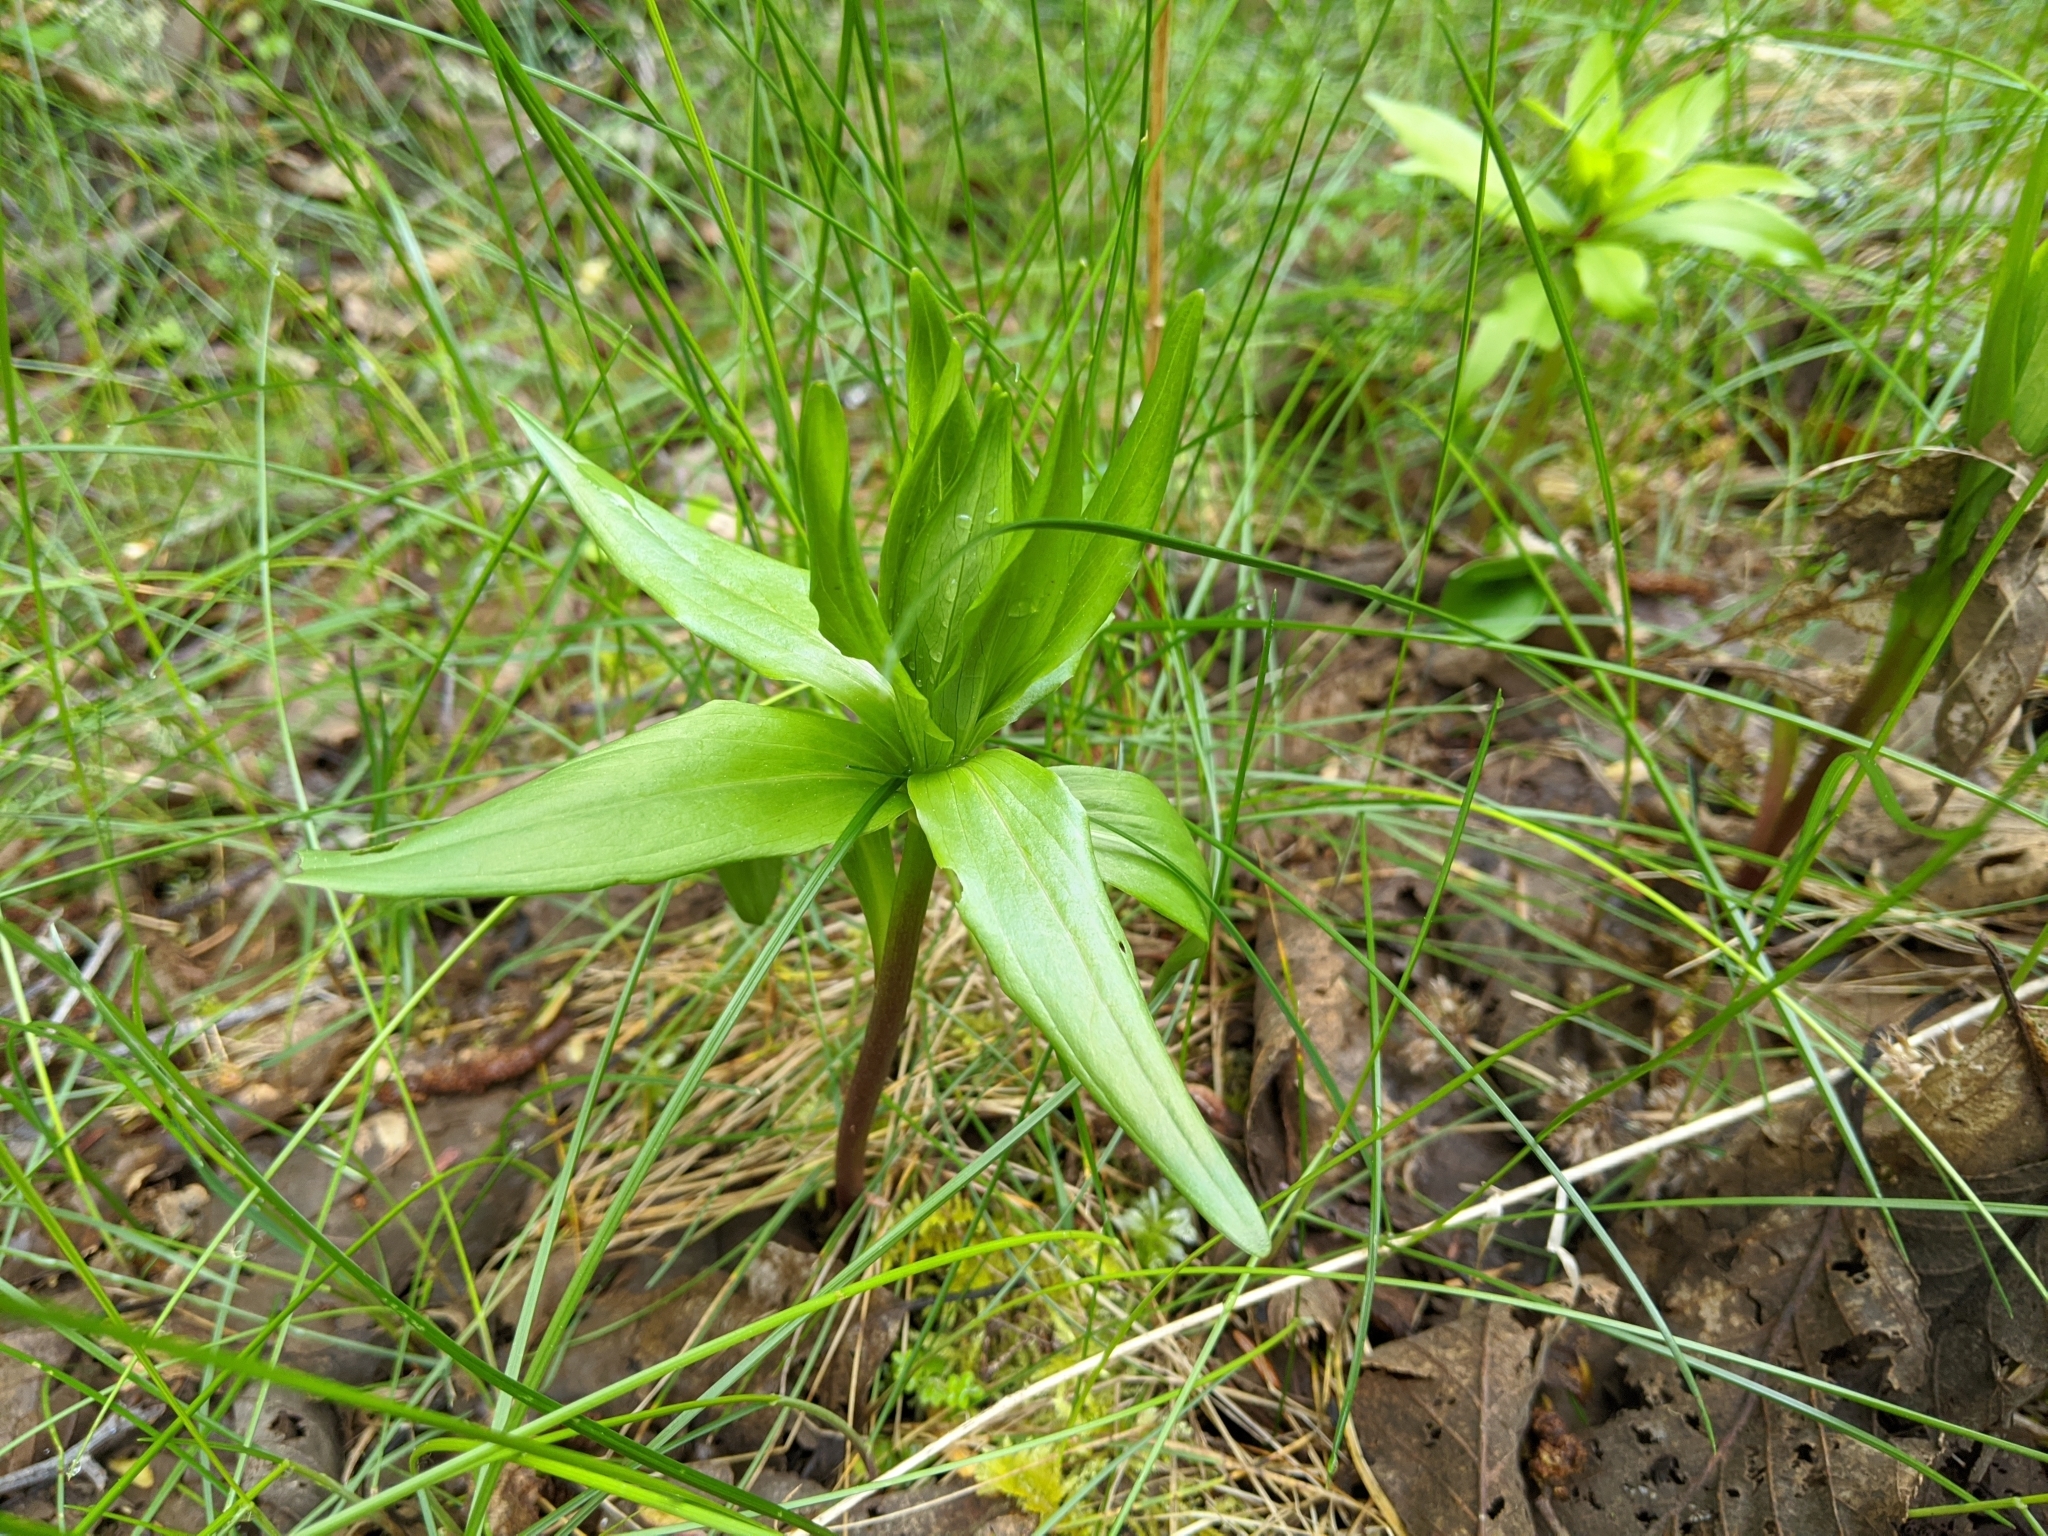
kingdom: Plantae
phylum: Tracheophyta
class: Liliopsida
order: Liliales
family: Liliaceae
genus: Lilium
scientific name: Lilium columbianum
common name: Columbia lily
